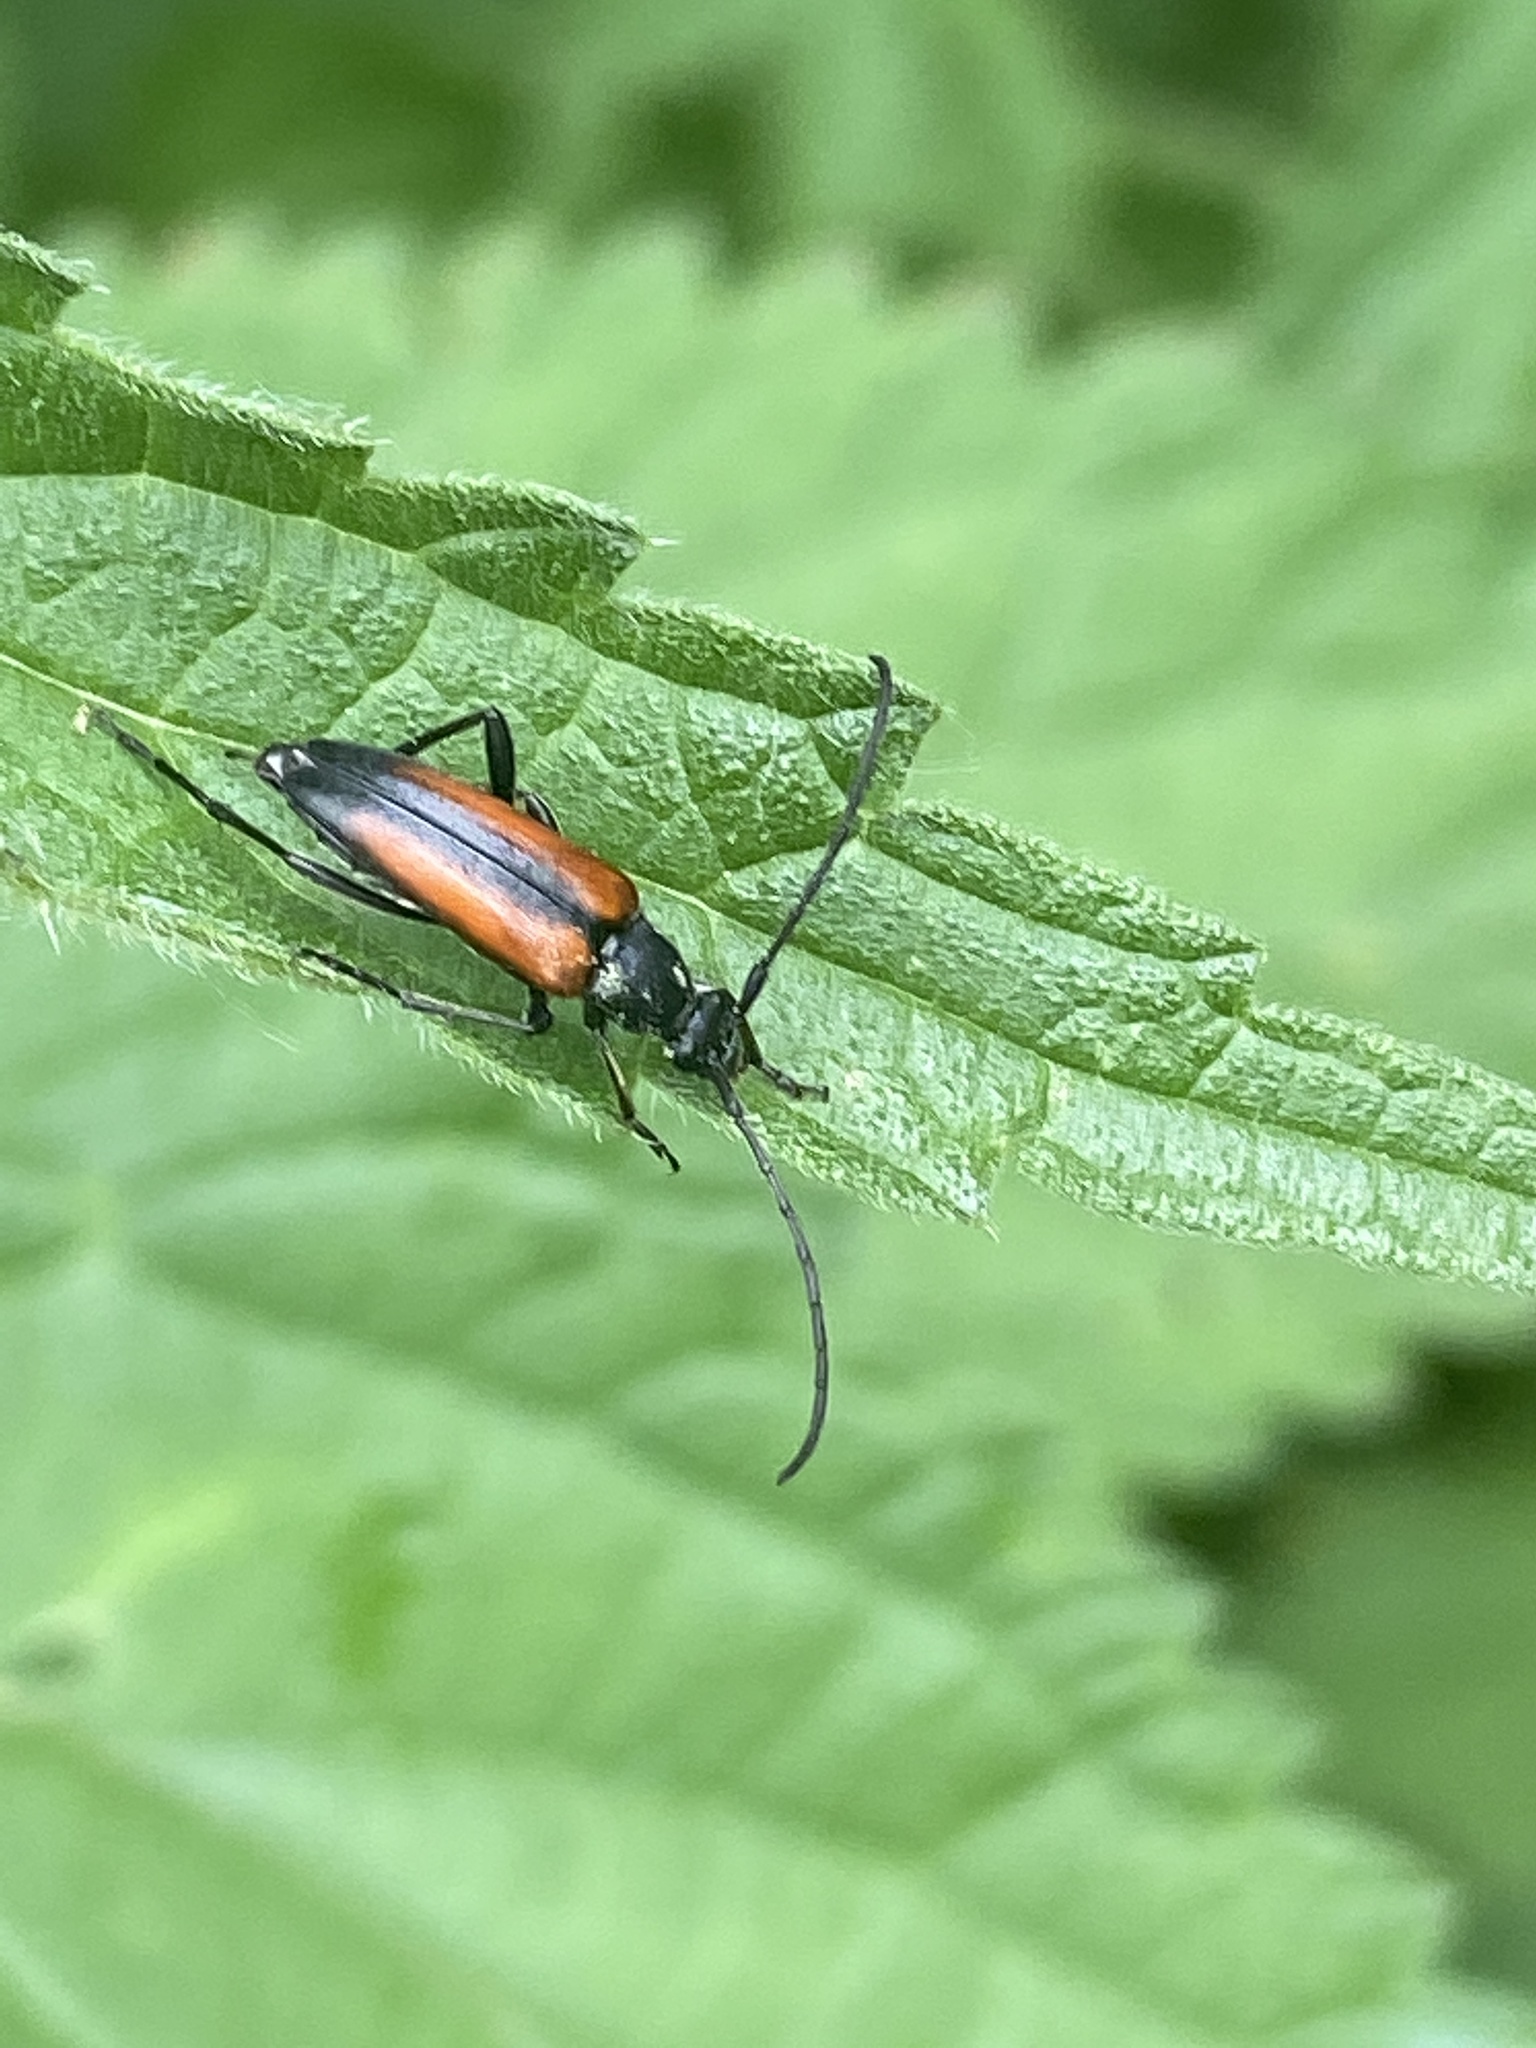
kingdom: Animalia
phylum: Arthropoda
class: Insecta
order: Coleoptera
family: Cerambycidae
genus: Stenurella
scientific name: Stenurella melanura
